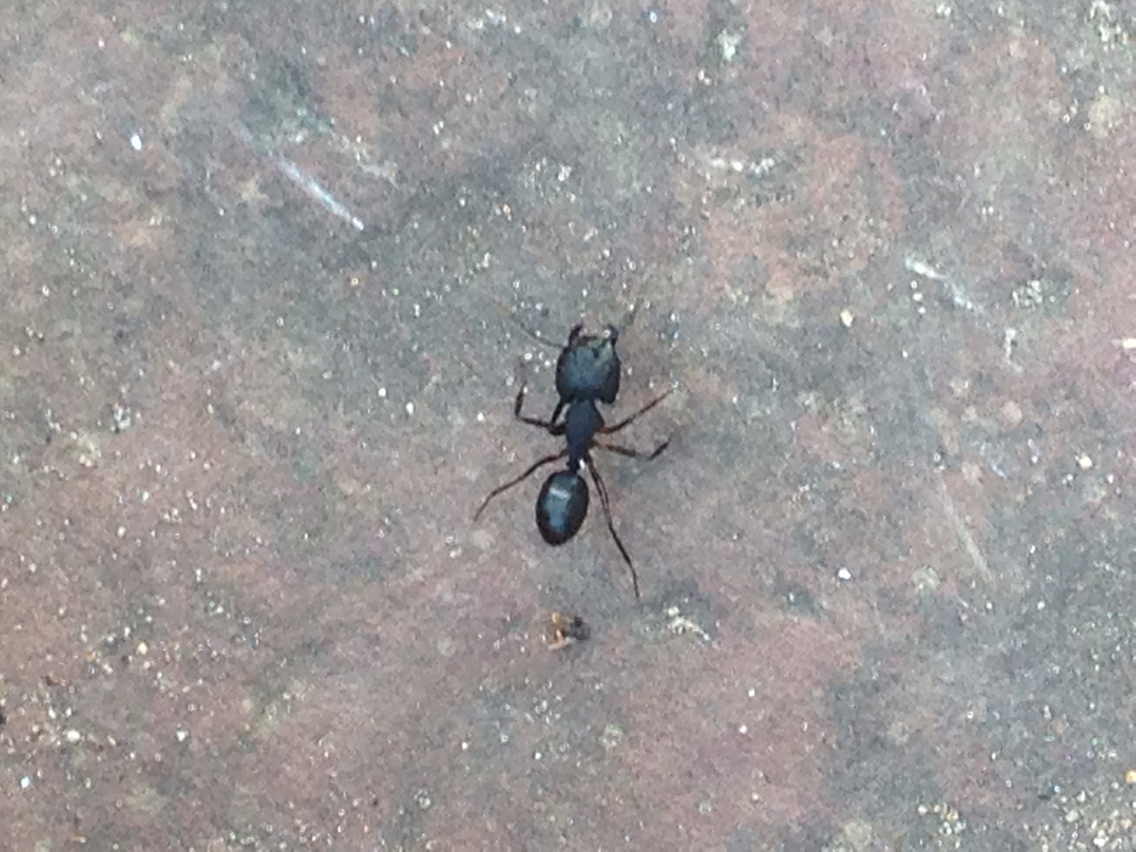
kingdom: Animalia
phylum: Arthropoda
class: Insecta
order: Hymenoptera
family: Formicidae
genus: Camponotus
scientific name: Camponotus compressus
